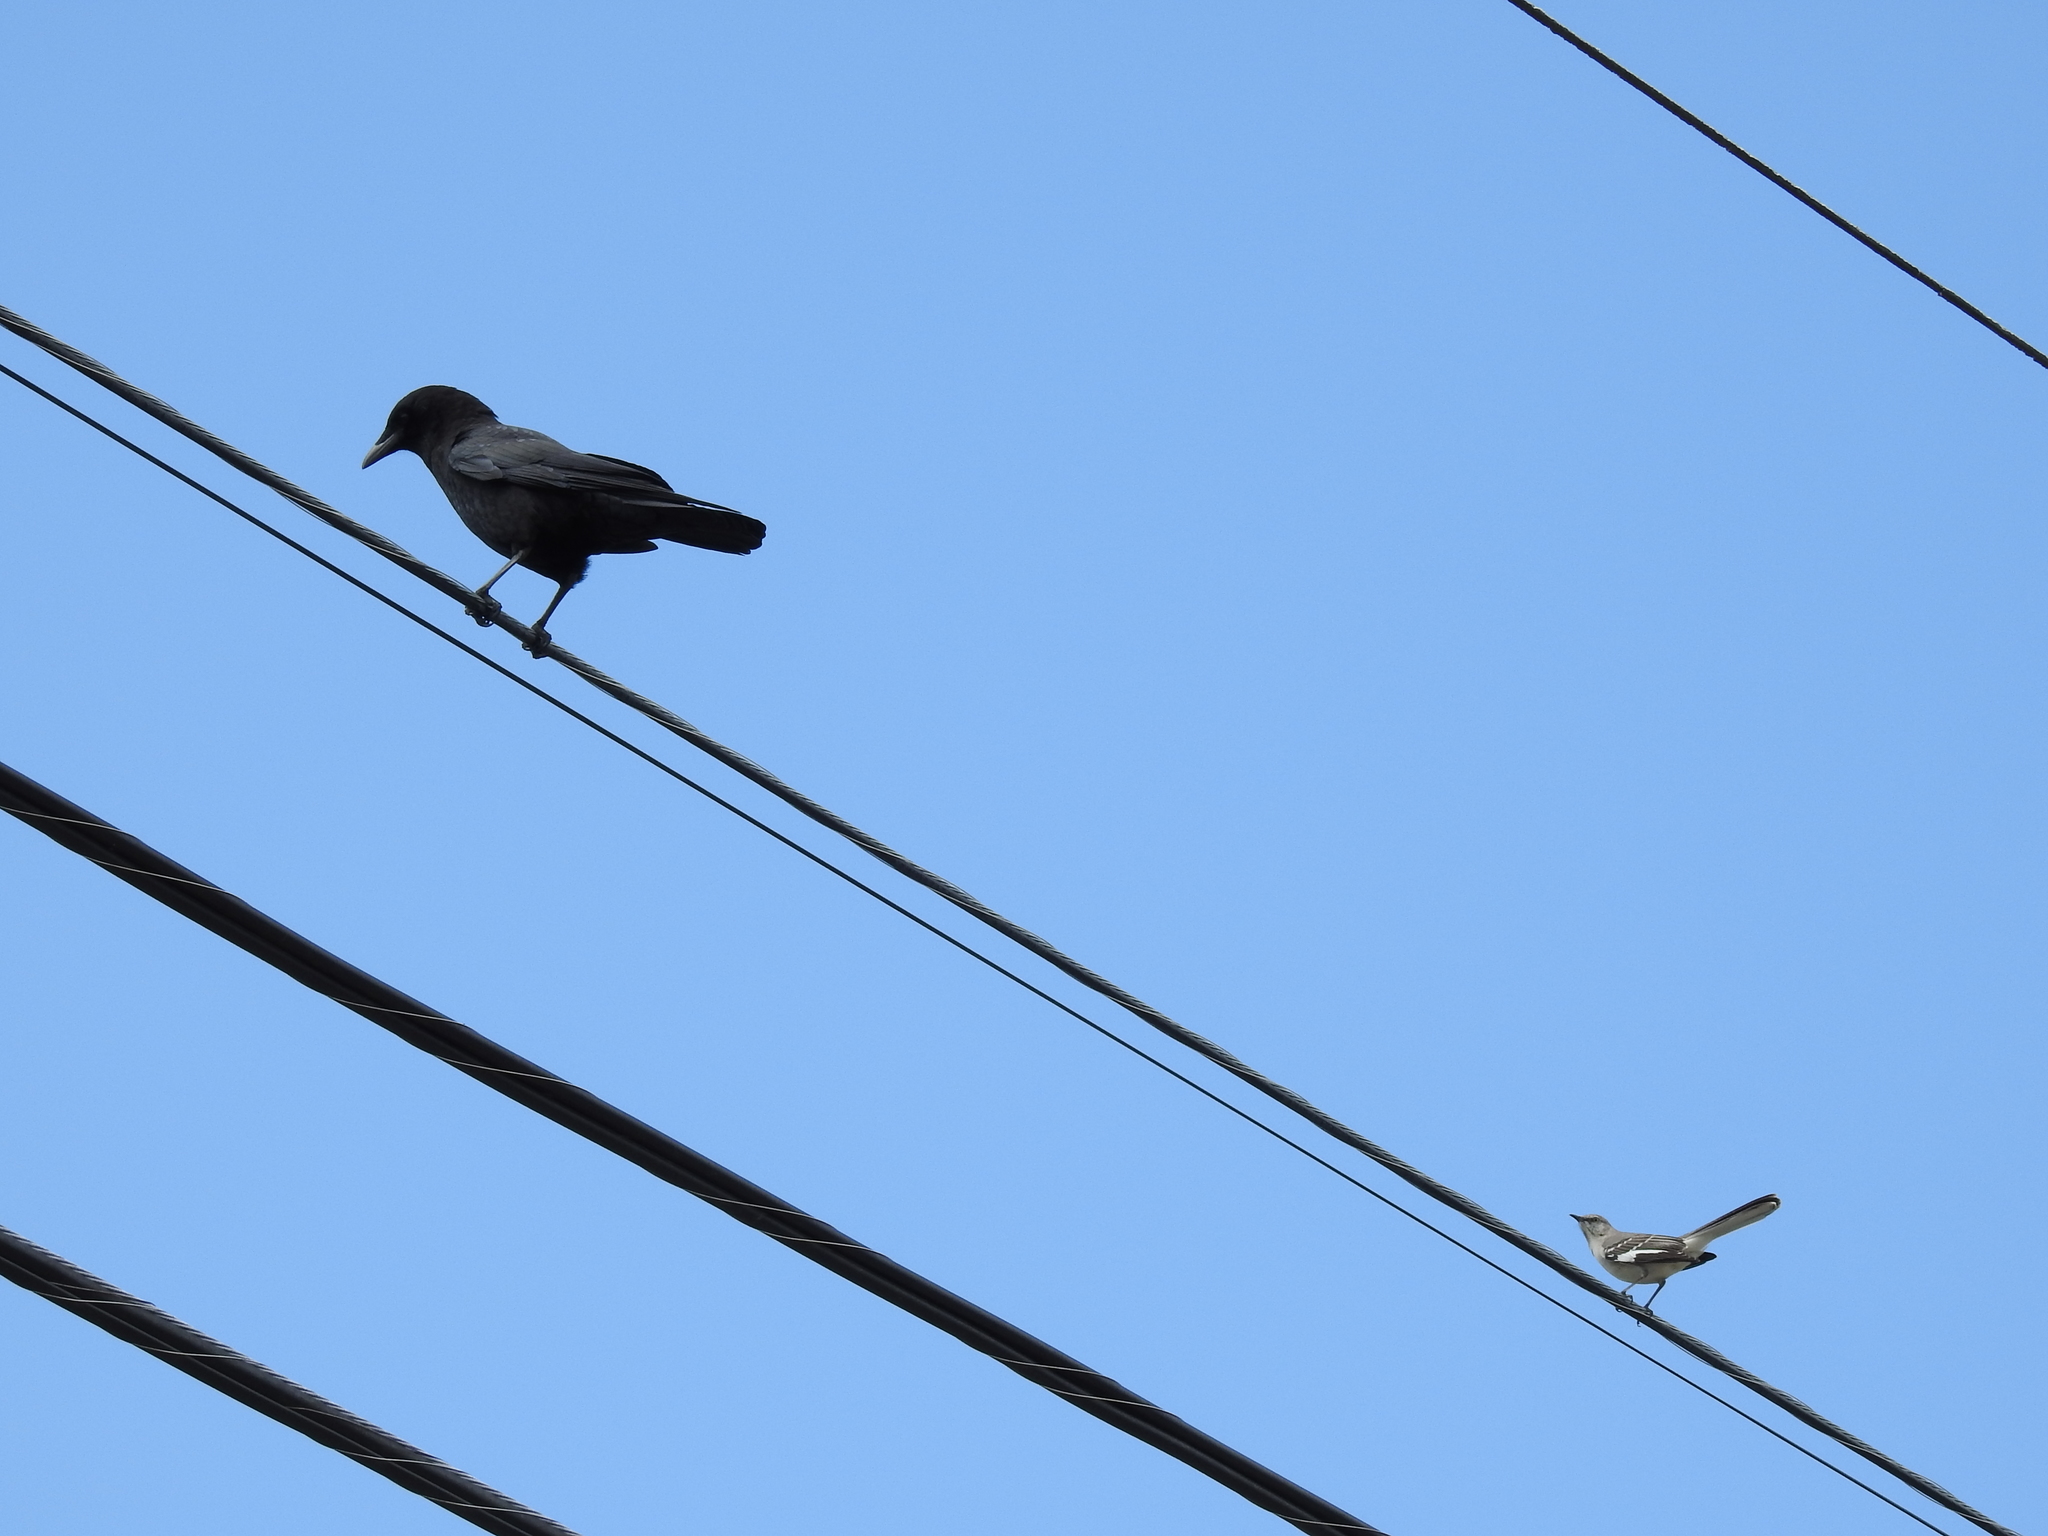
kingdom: Animalia
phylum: Chordata
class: Aves
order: Passeriformes
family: Corvidae
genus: Corvus
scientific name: Corvus brachyrhynchos
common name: American crow
